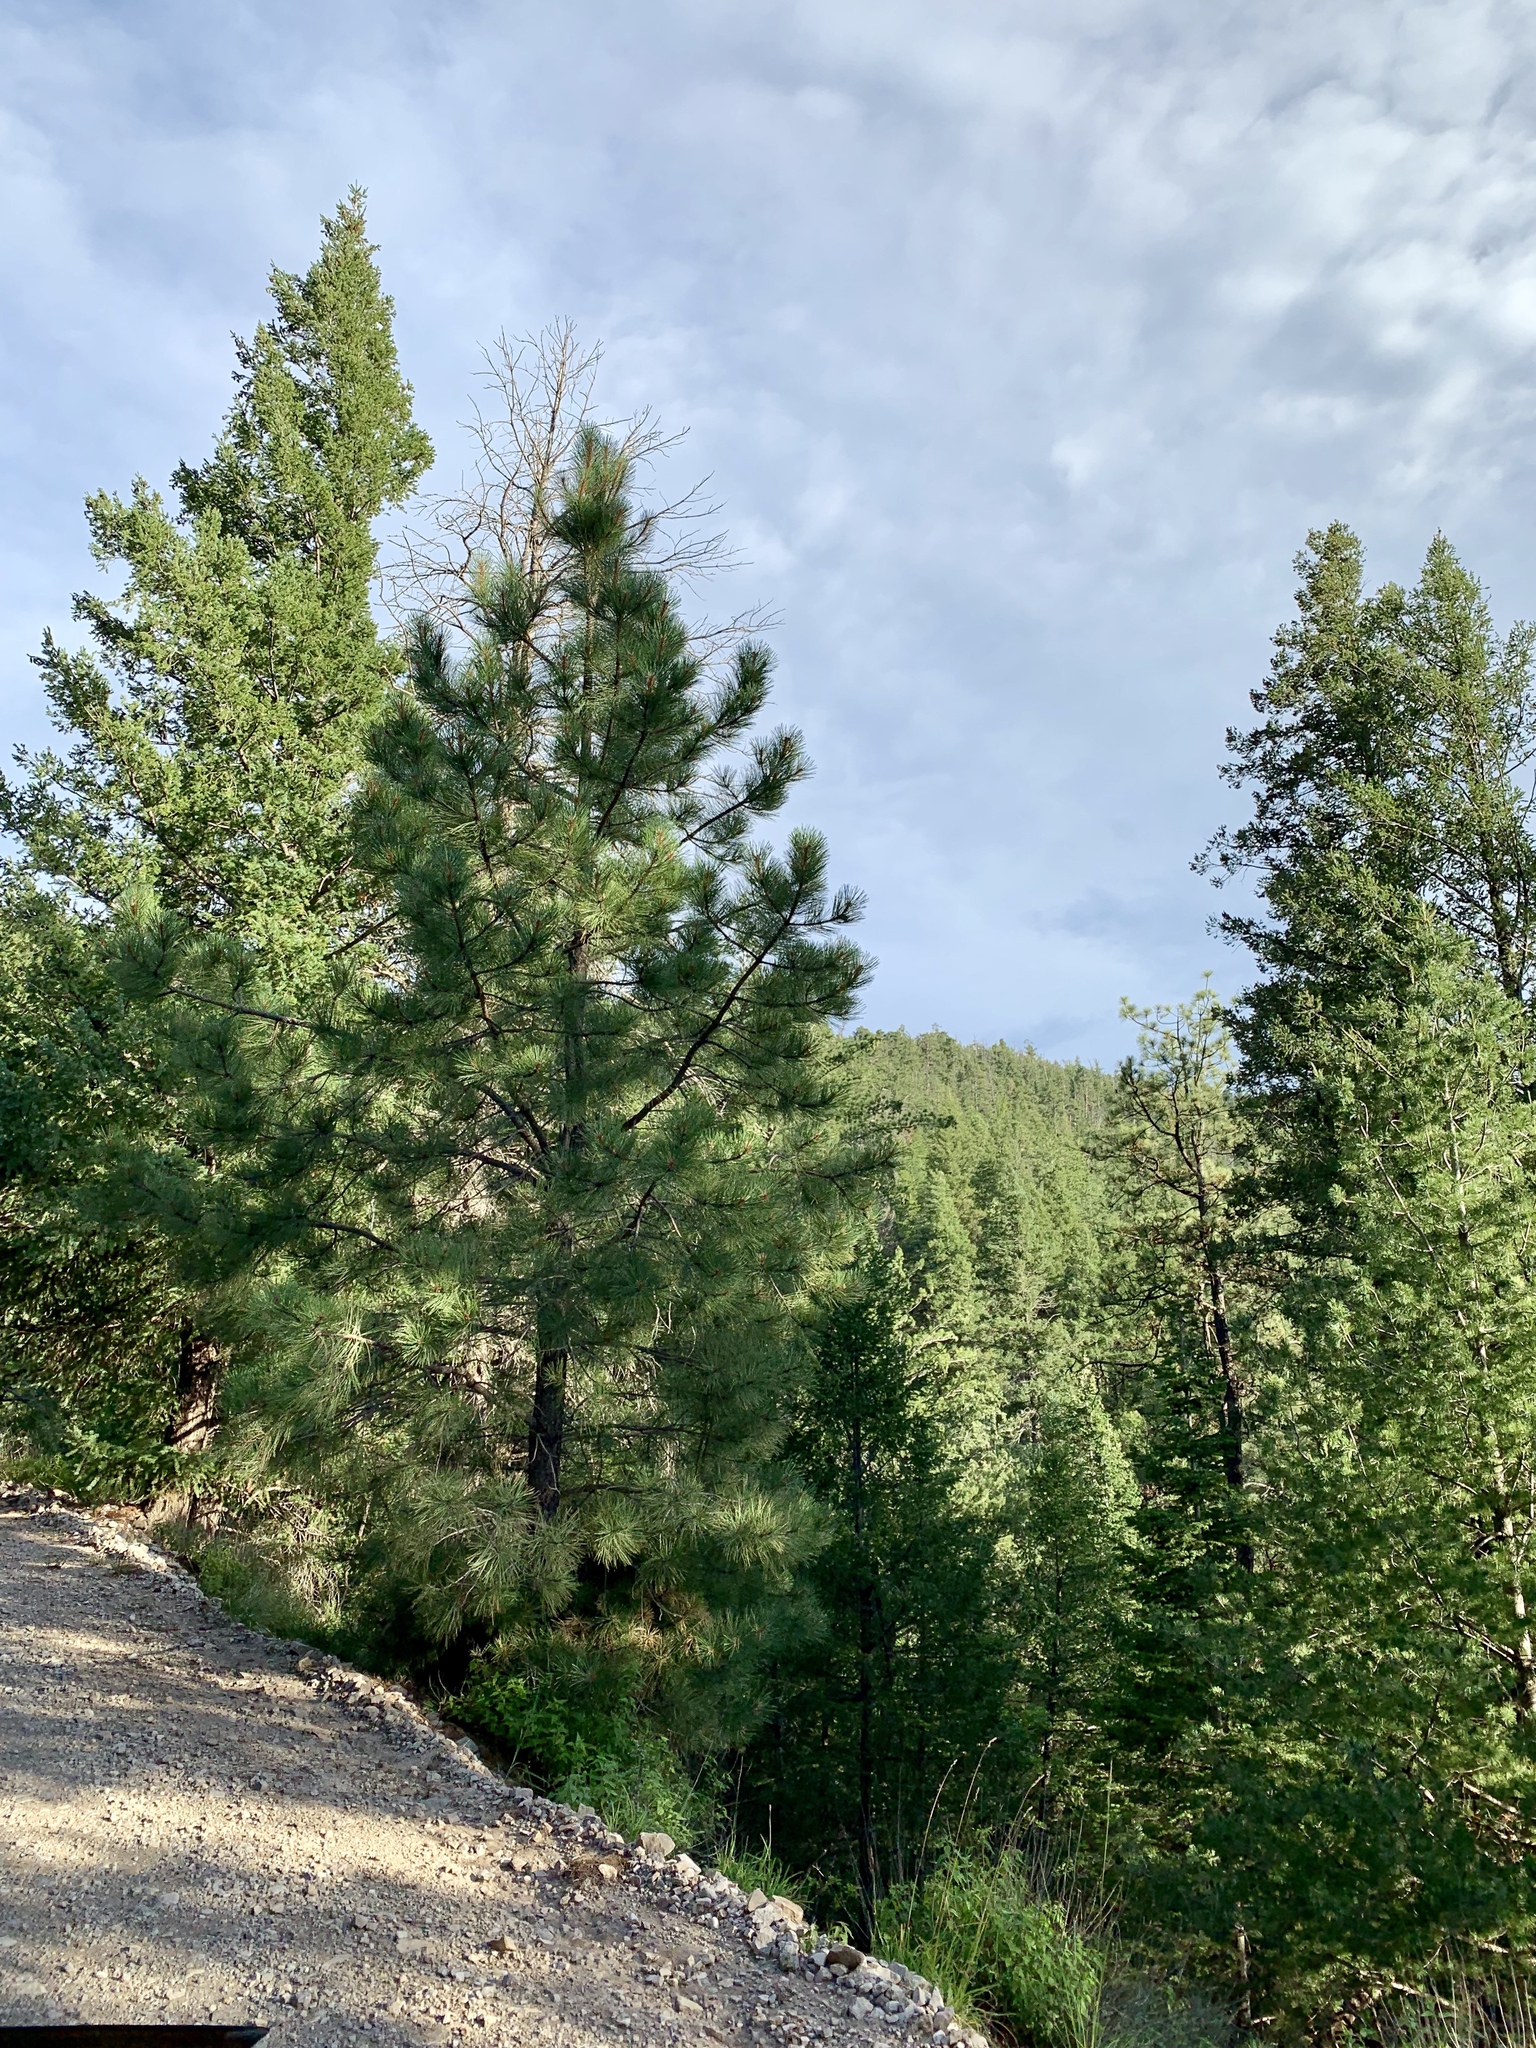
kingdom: Plantae
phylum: Tracheophyta
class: Pinopsida
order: Pinales
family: Pinaceae
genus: Pinus
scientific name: Pinus ponderosa
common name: Western yellow-pine
